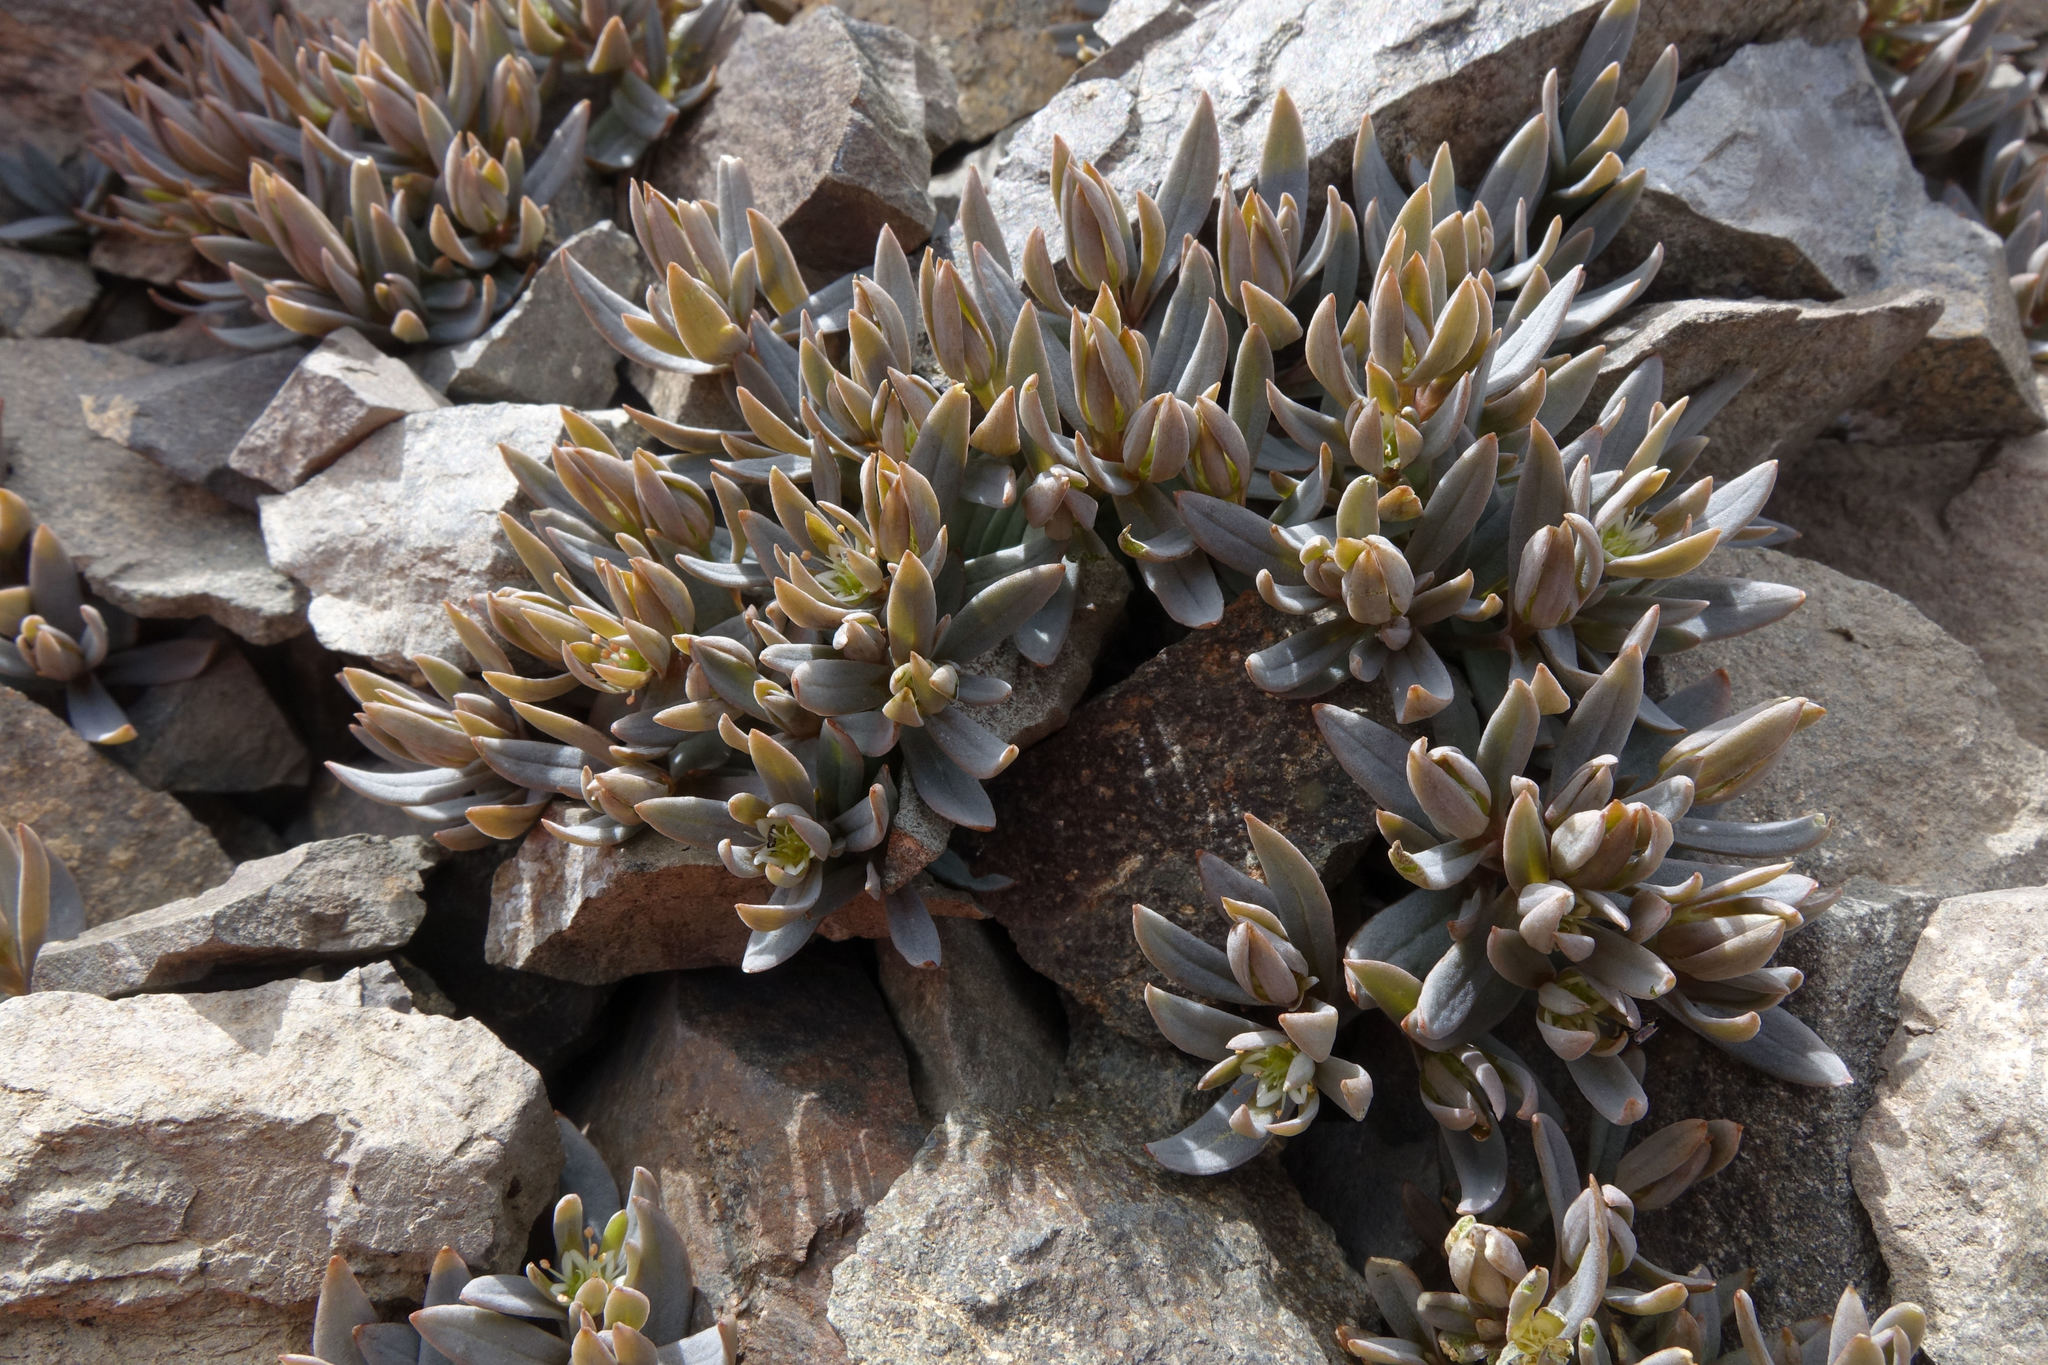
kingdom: Plantae
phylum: Tracheophyta
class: Magnoliopsida
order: Caryophyllales
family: Caryophyllaceae
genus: Stellaria
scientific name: Stellaria roughii
